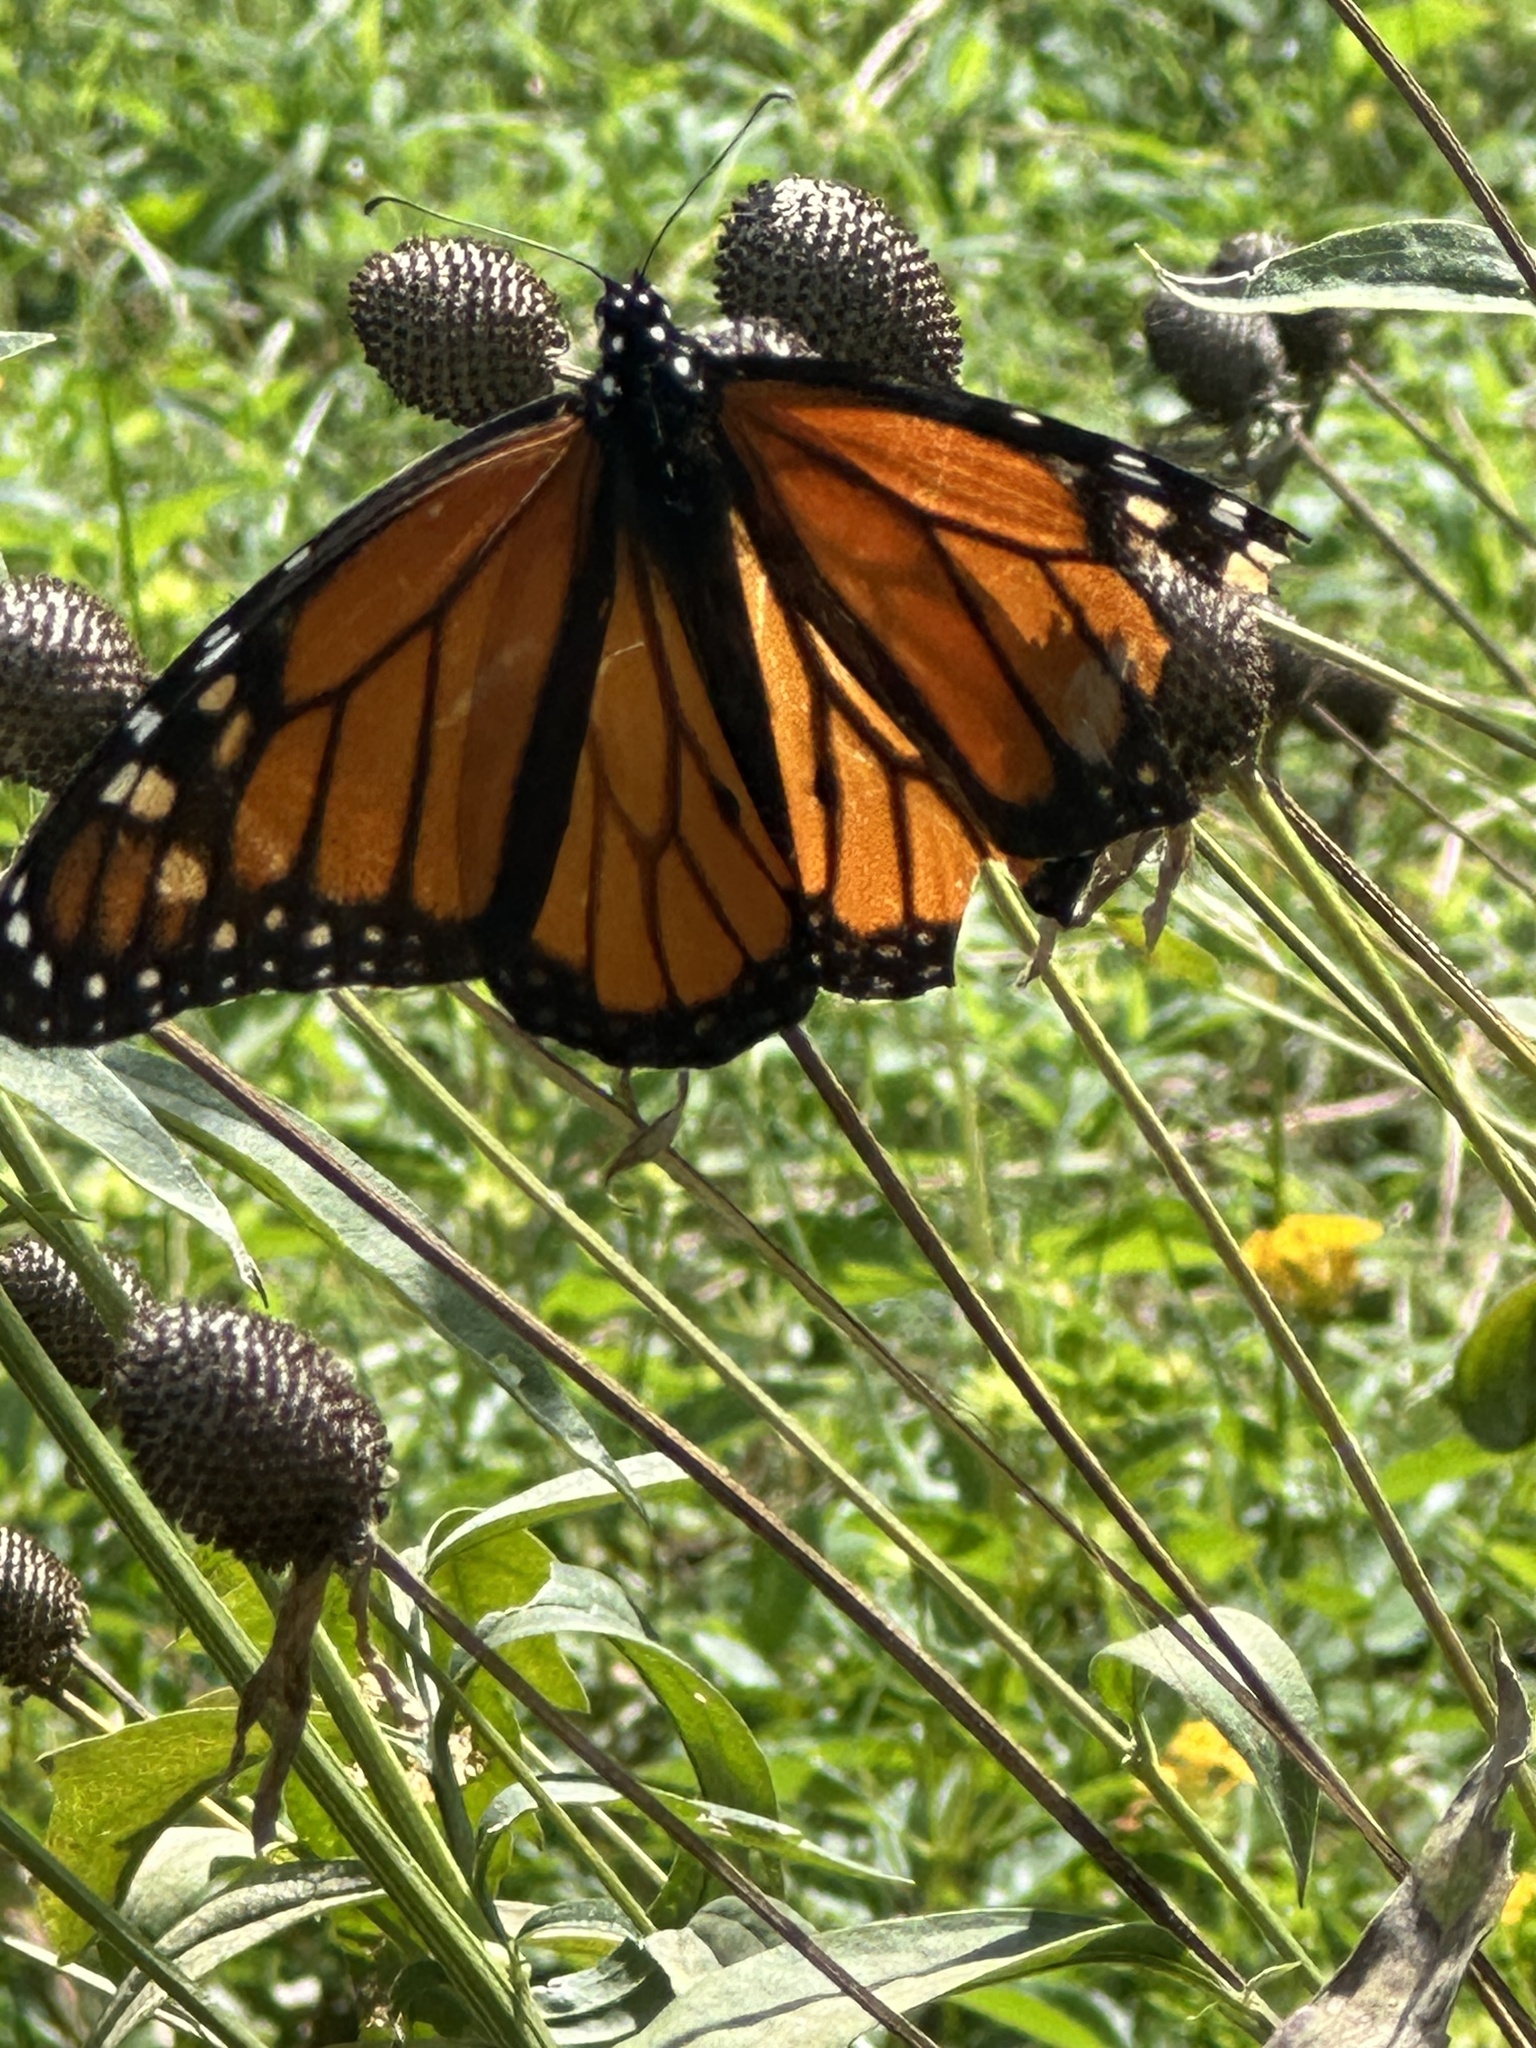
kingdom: Animalia
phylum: Arthropoda
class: Insecta
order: Lepidoptera
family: Nymphalidae
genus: Danaus
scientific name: Danaus plexippus
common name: Monarch
